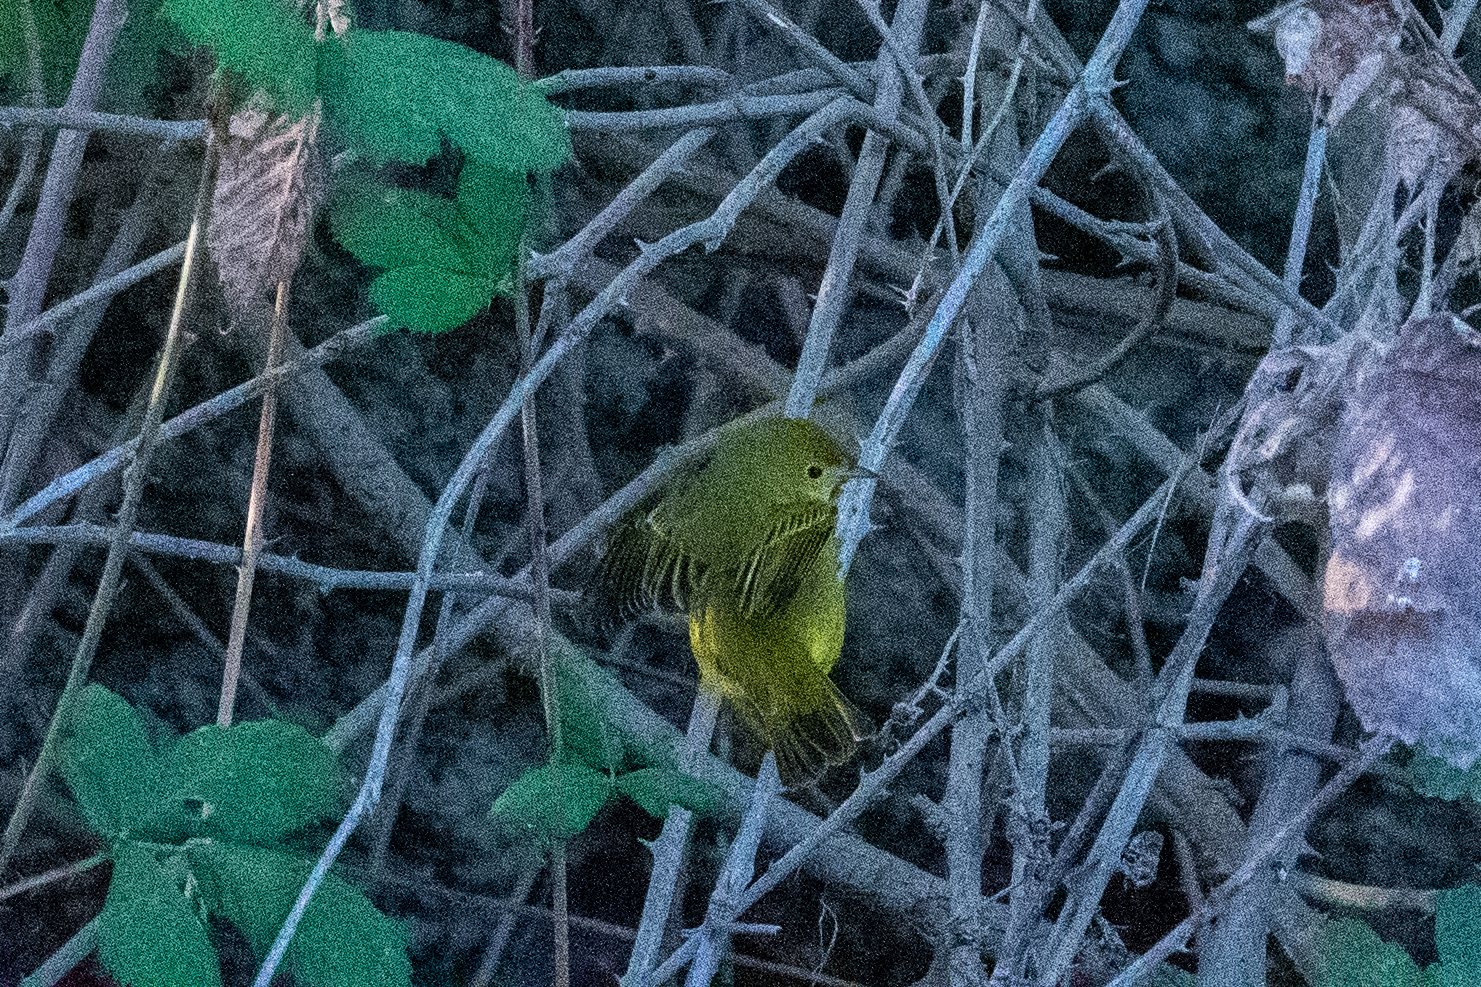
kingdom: Animalia
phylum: Chordata
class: Aves
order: Passeriformes
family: Parulidae
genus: Setophaga
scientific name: Setophaga petechia
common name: Yellow warbler
